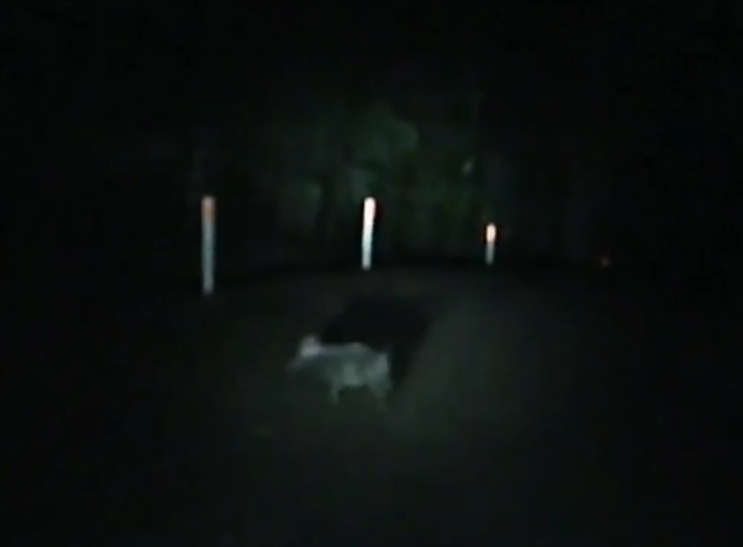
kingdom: Animalia
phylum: Chordata
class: Mammalia
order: Artiodactyla
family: Suidae
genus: Sus
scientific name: Sus scrofa
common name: Wild boar
